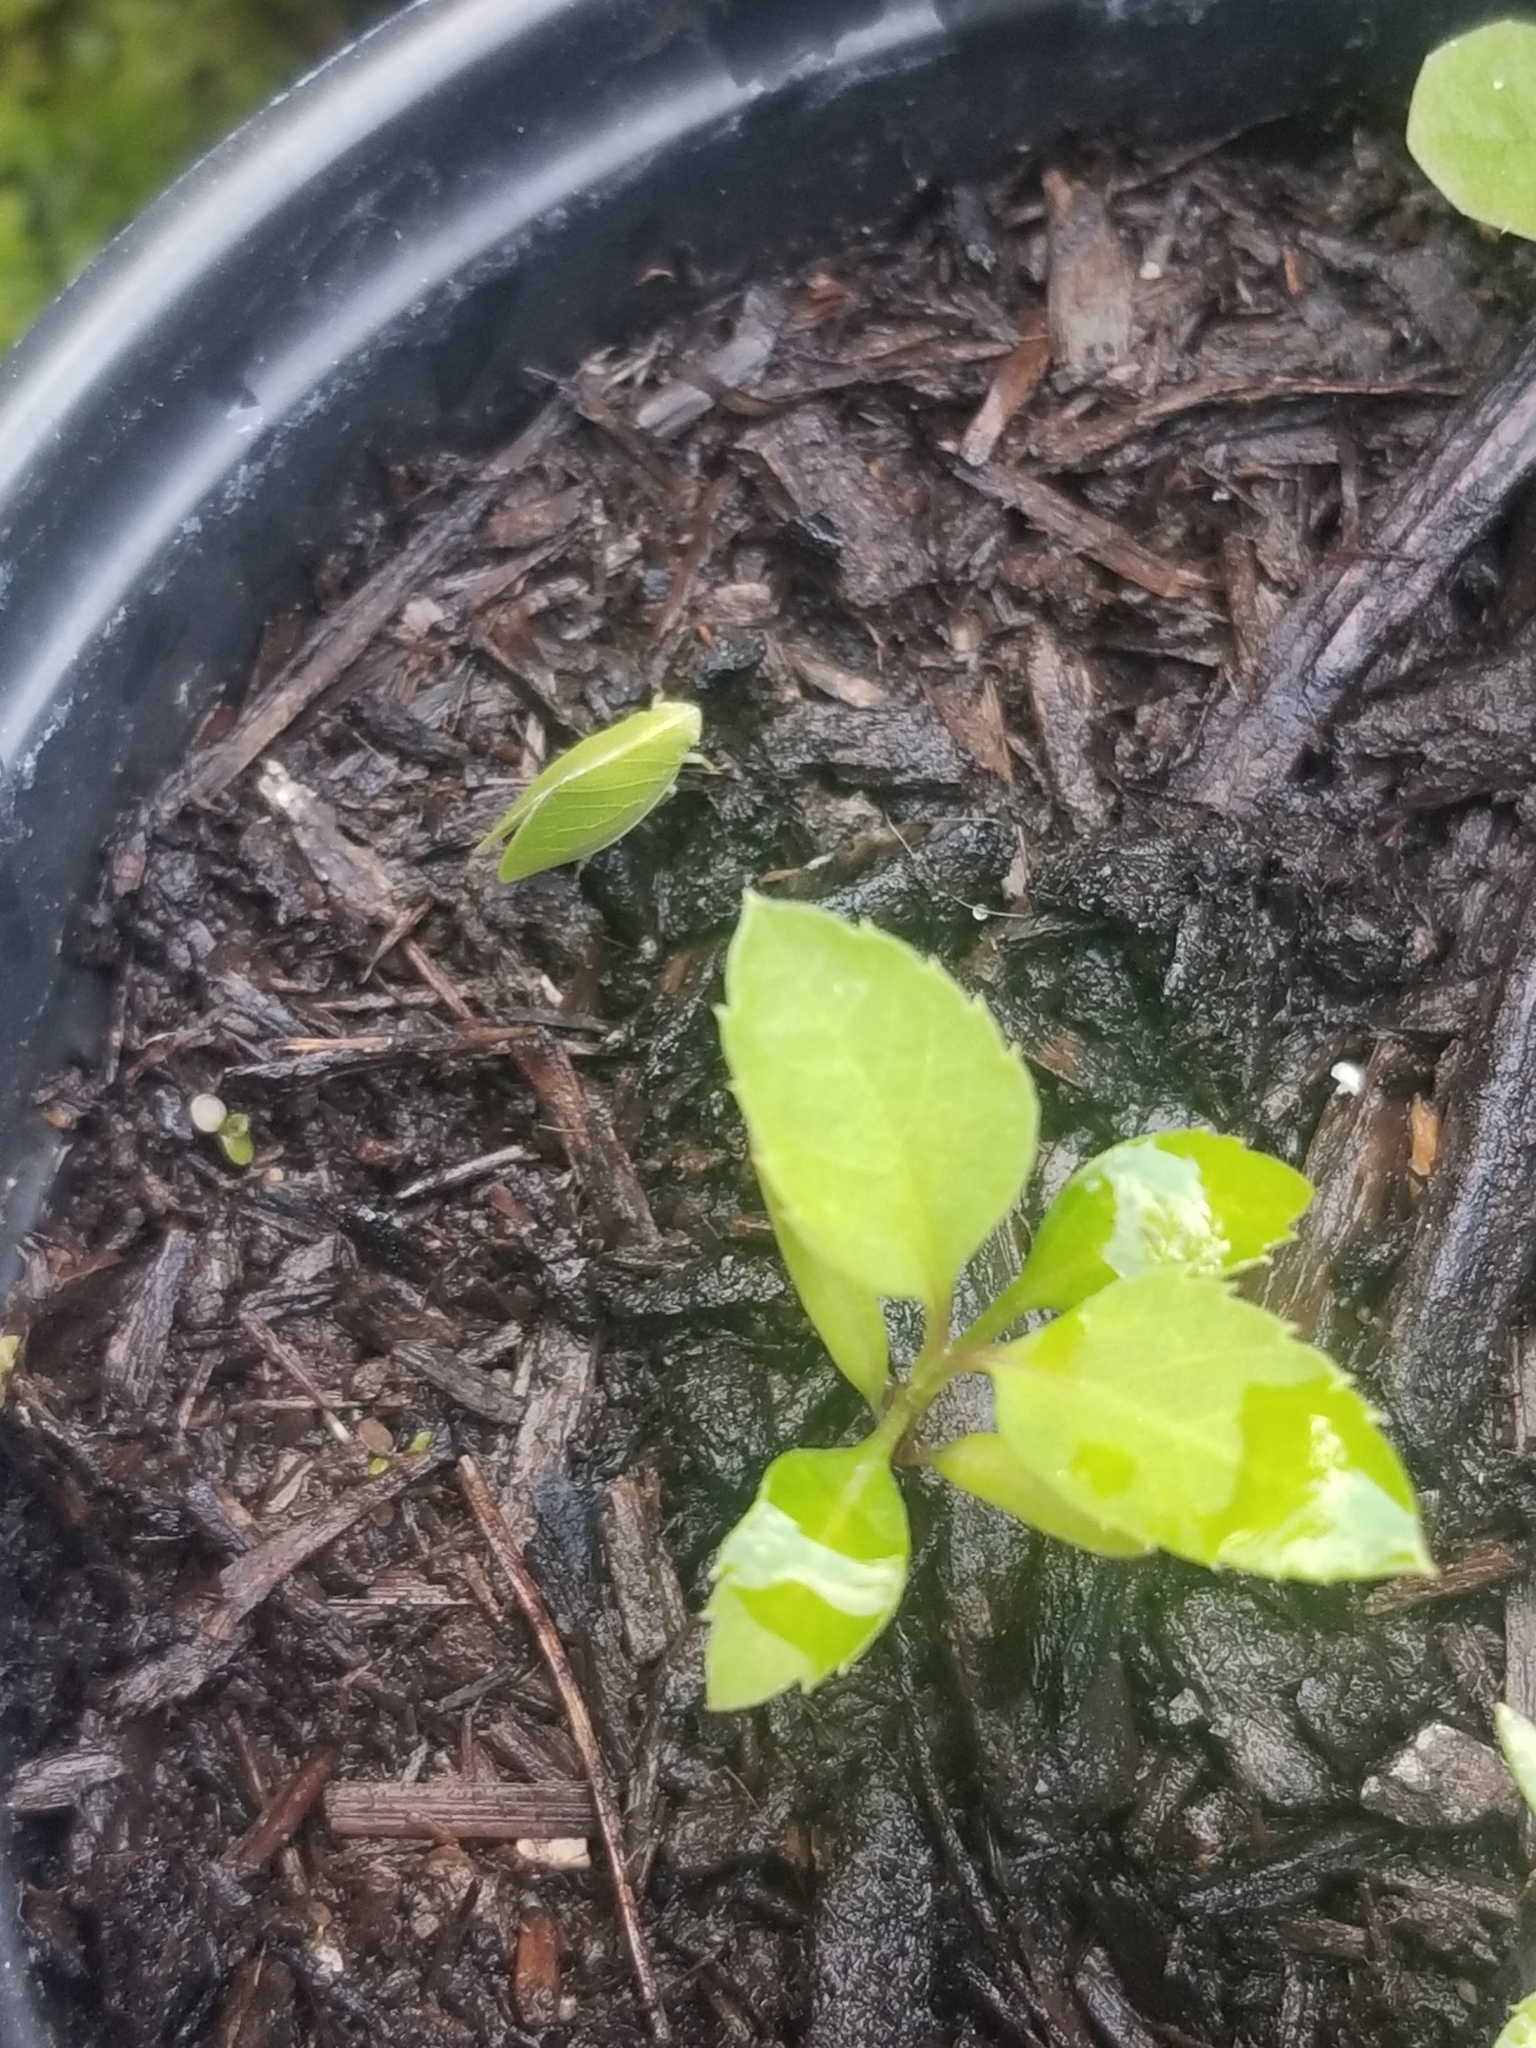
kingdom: Animalia
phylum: Arthropoda
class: Insecta
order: Hemiptera
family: Acanaloniidae
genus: Acanalonia
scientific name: Acanalonia conica
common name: Green cone-headed planthopper
